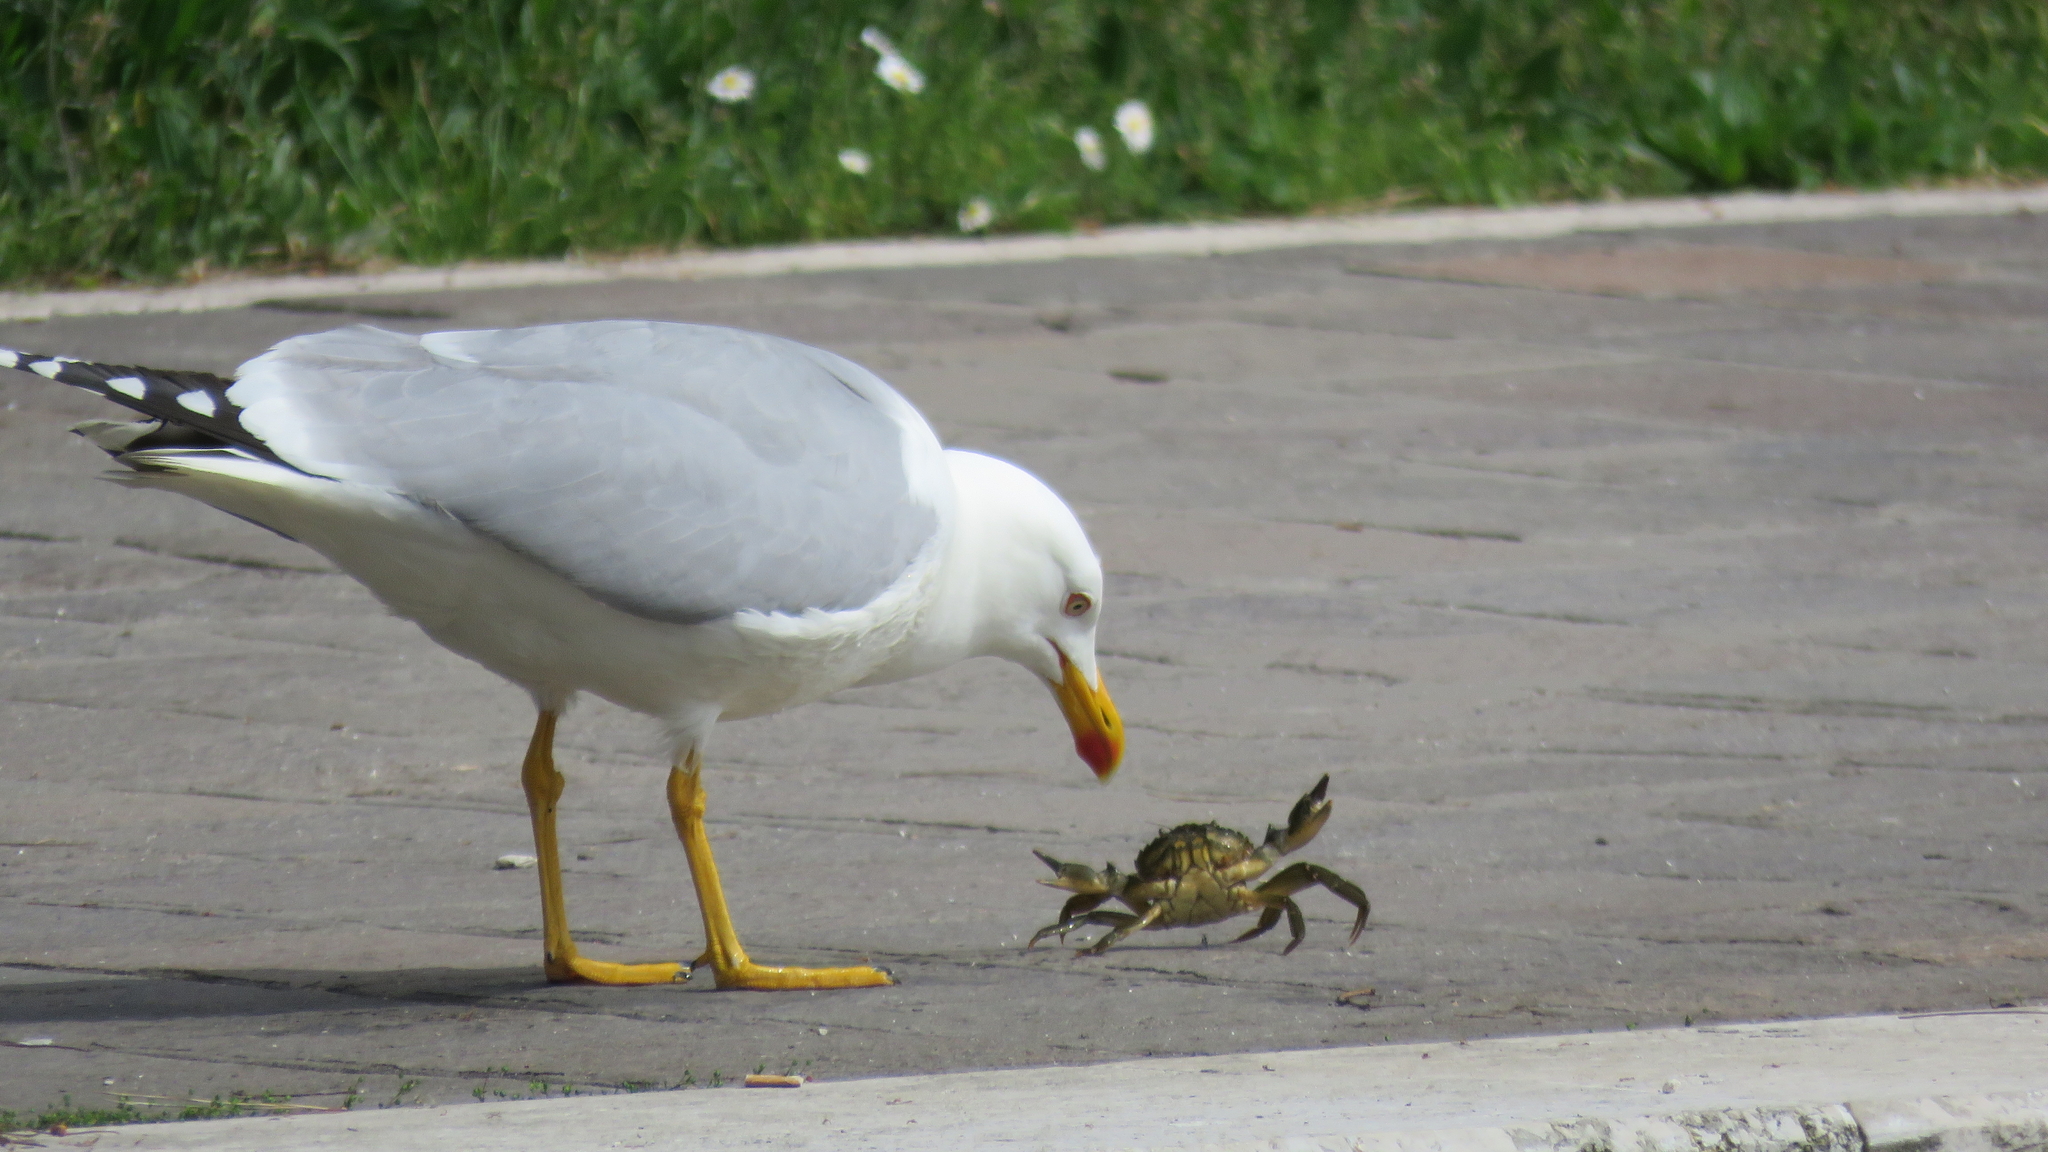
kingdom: Animalia
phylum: Arthropoda
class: Malacostraca
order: Decapoda
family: Carcinidae
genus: Carcinus
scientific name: Carcinus aestuarii
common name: Mediterranean green crab
